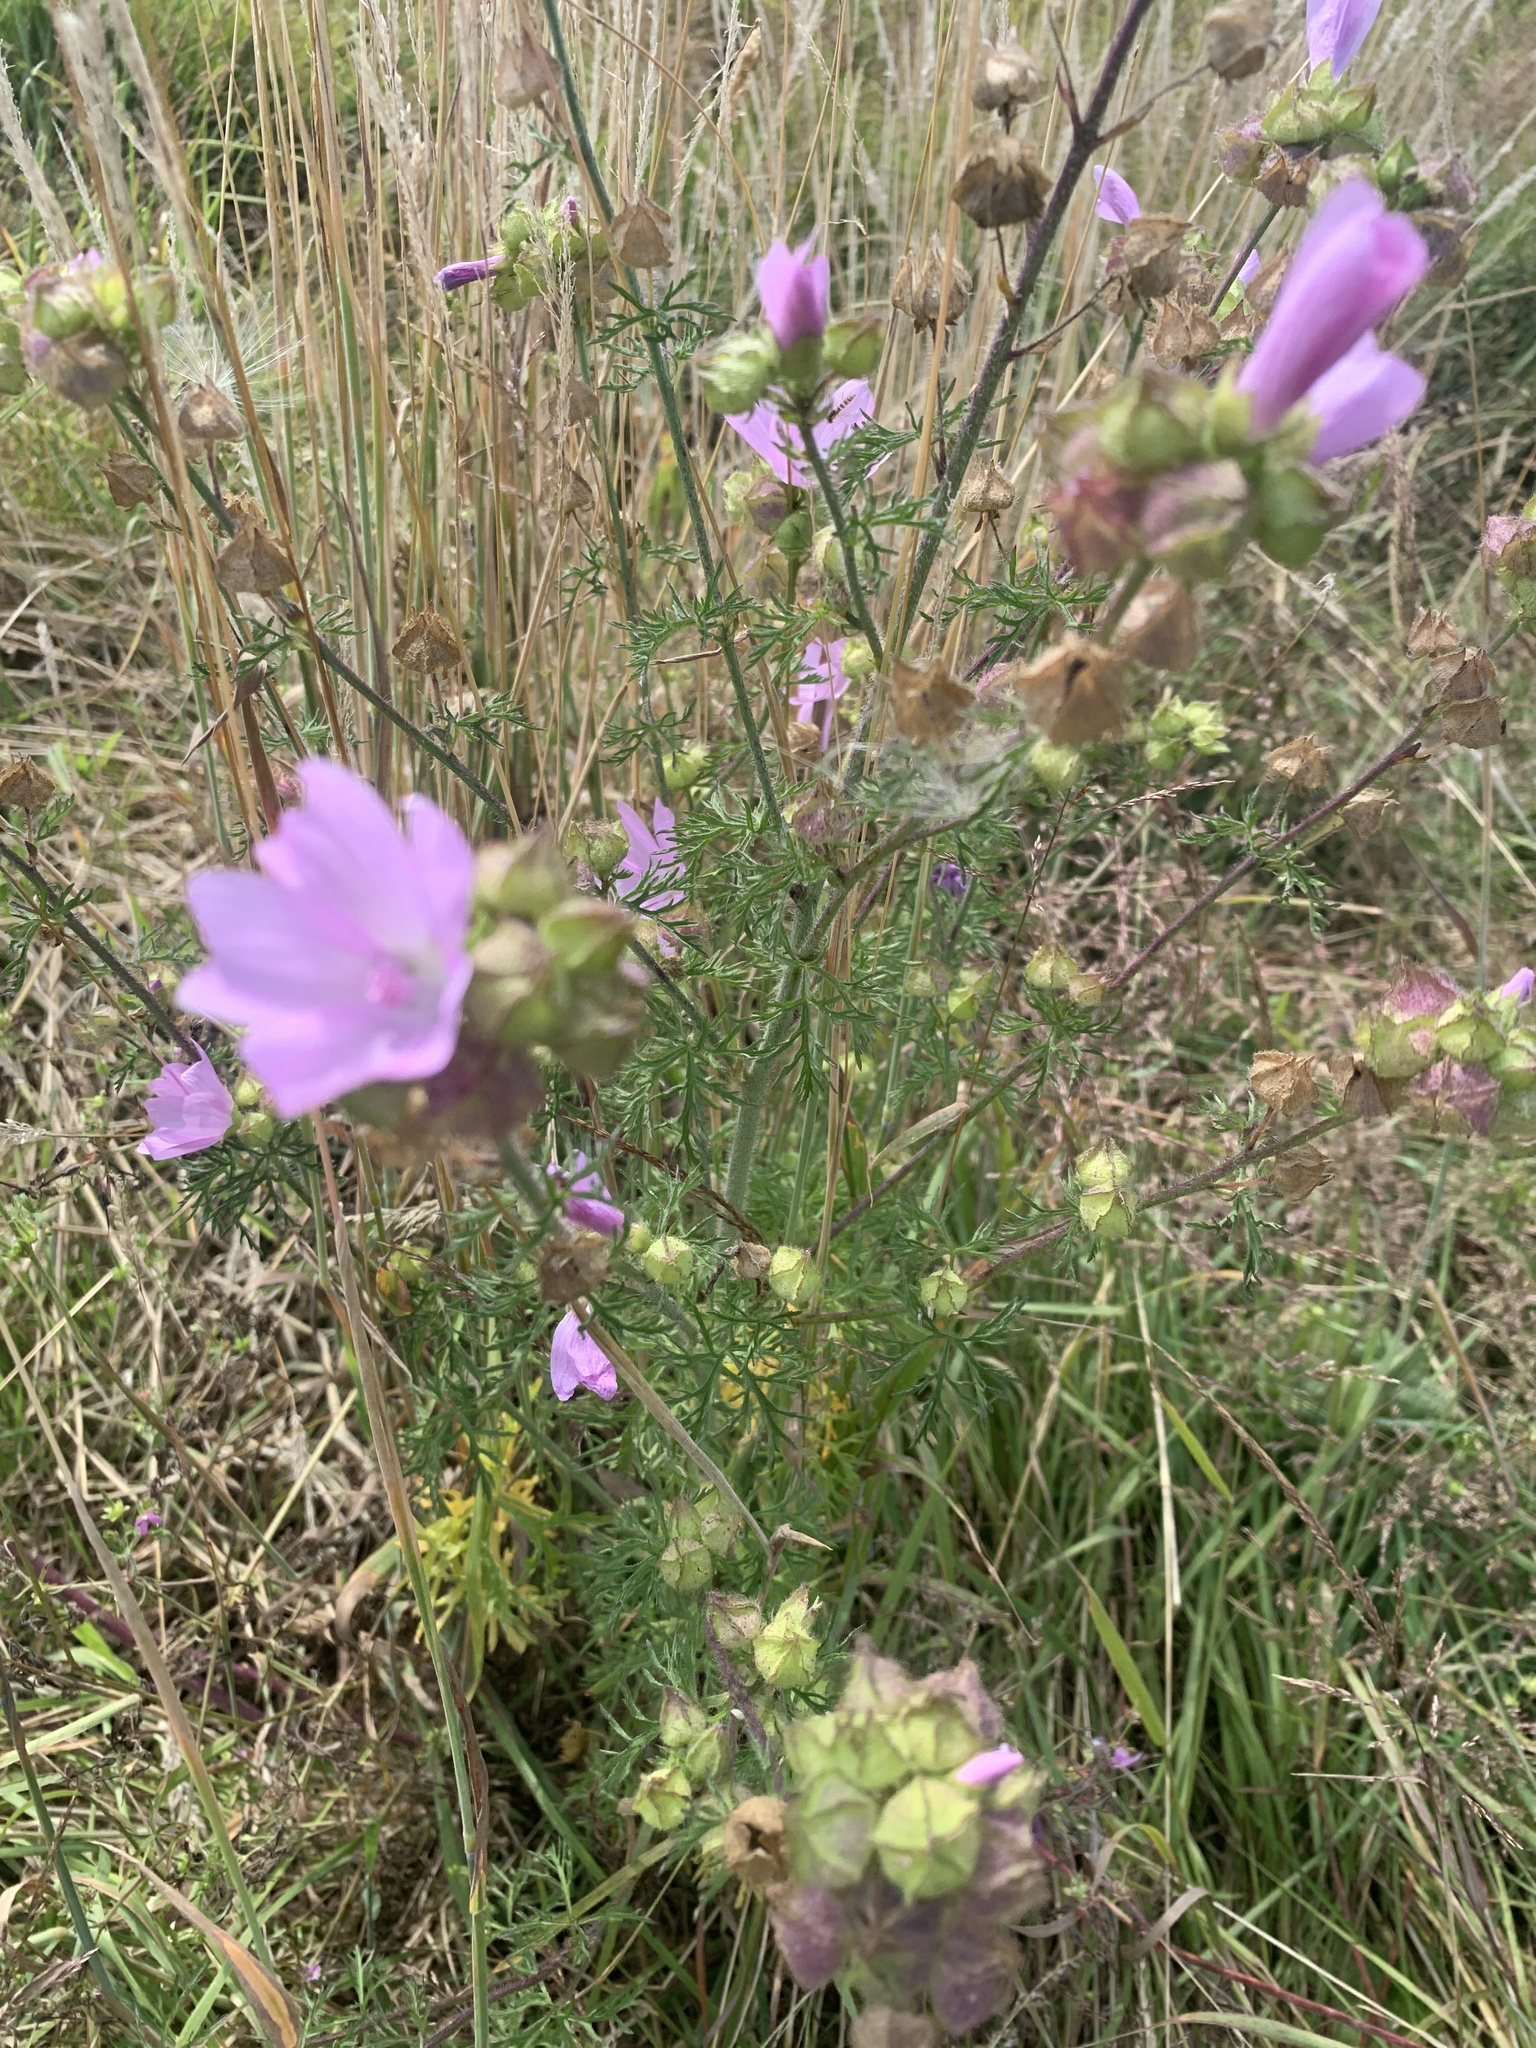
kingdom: Plantae
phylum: Tracheophyta
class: Magnoliopsida
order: Malvales
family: Malvaceae
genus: Malva
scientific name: Malva moschata
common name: Musk mallow
